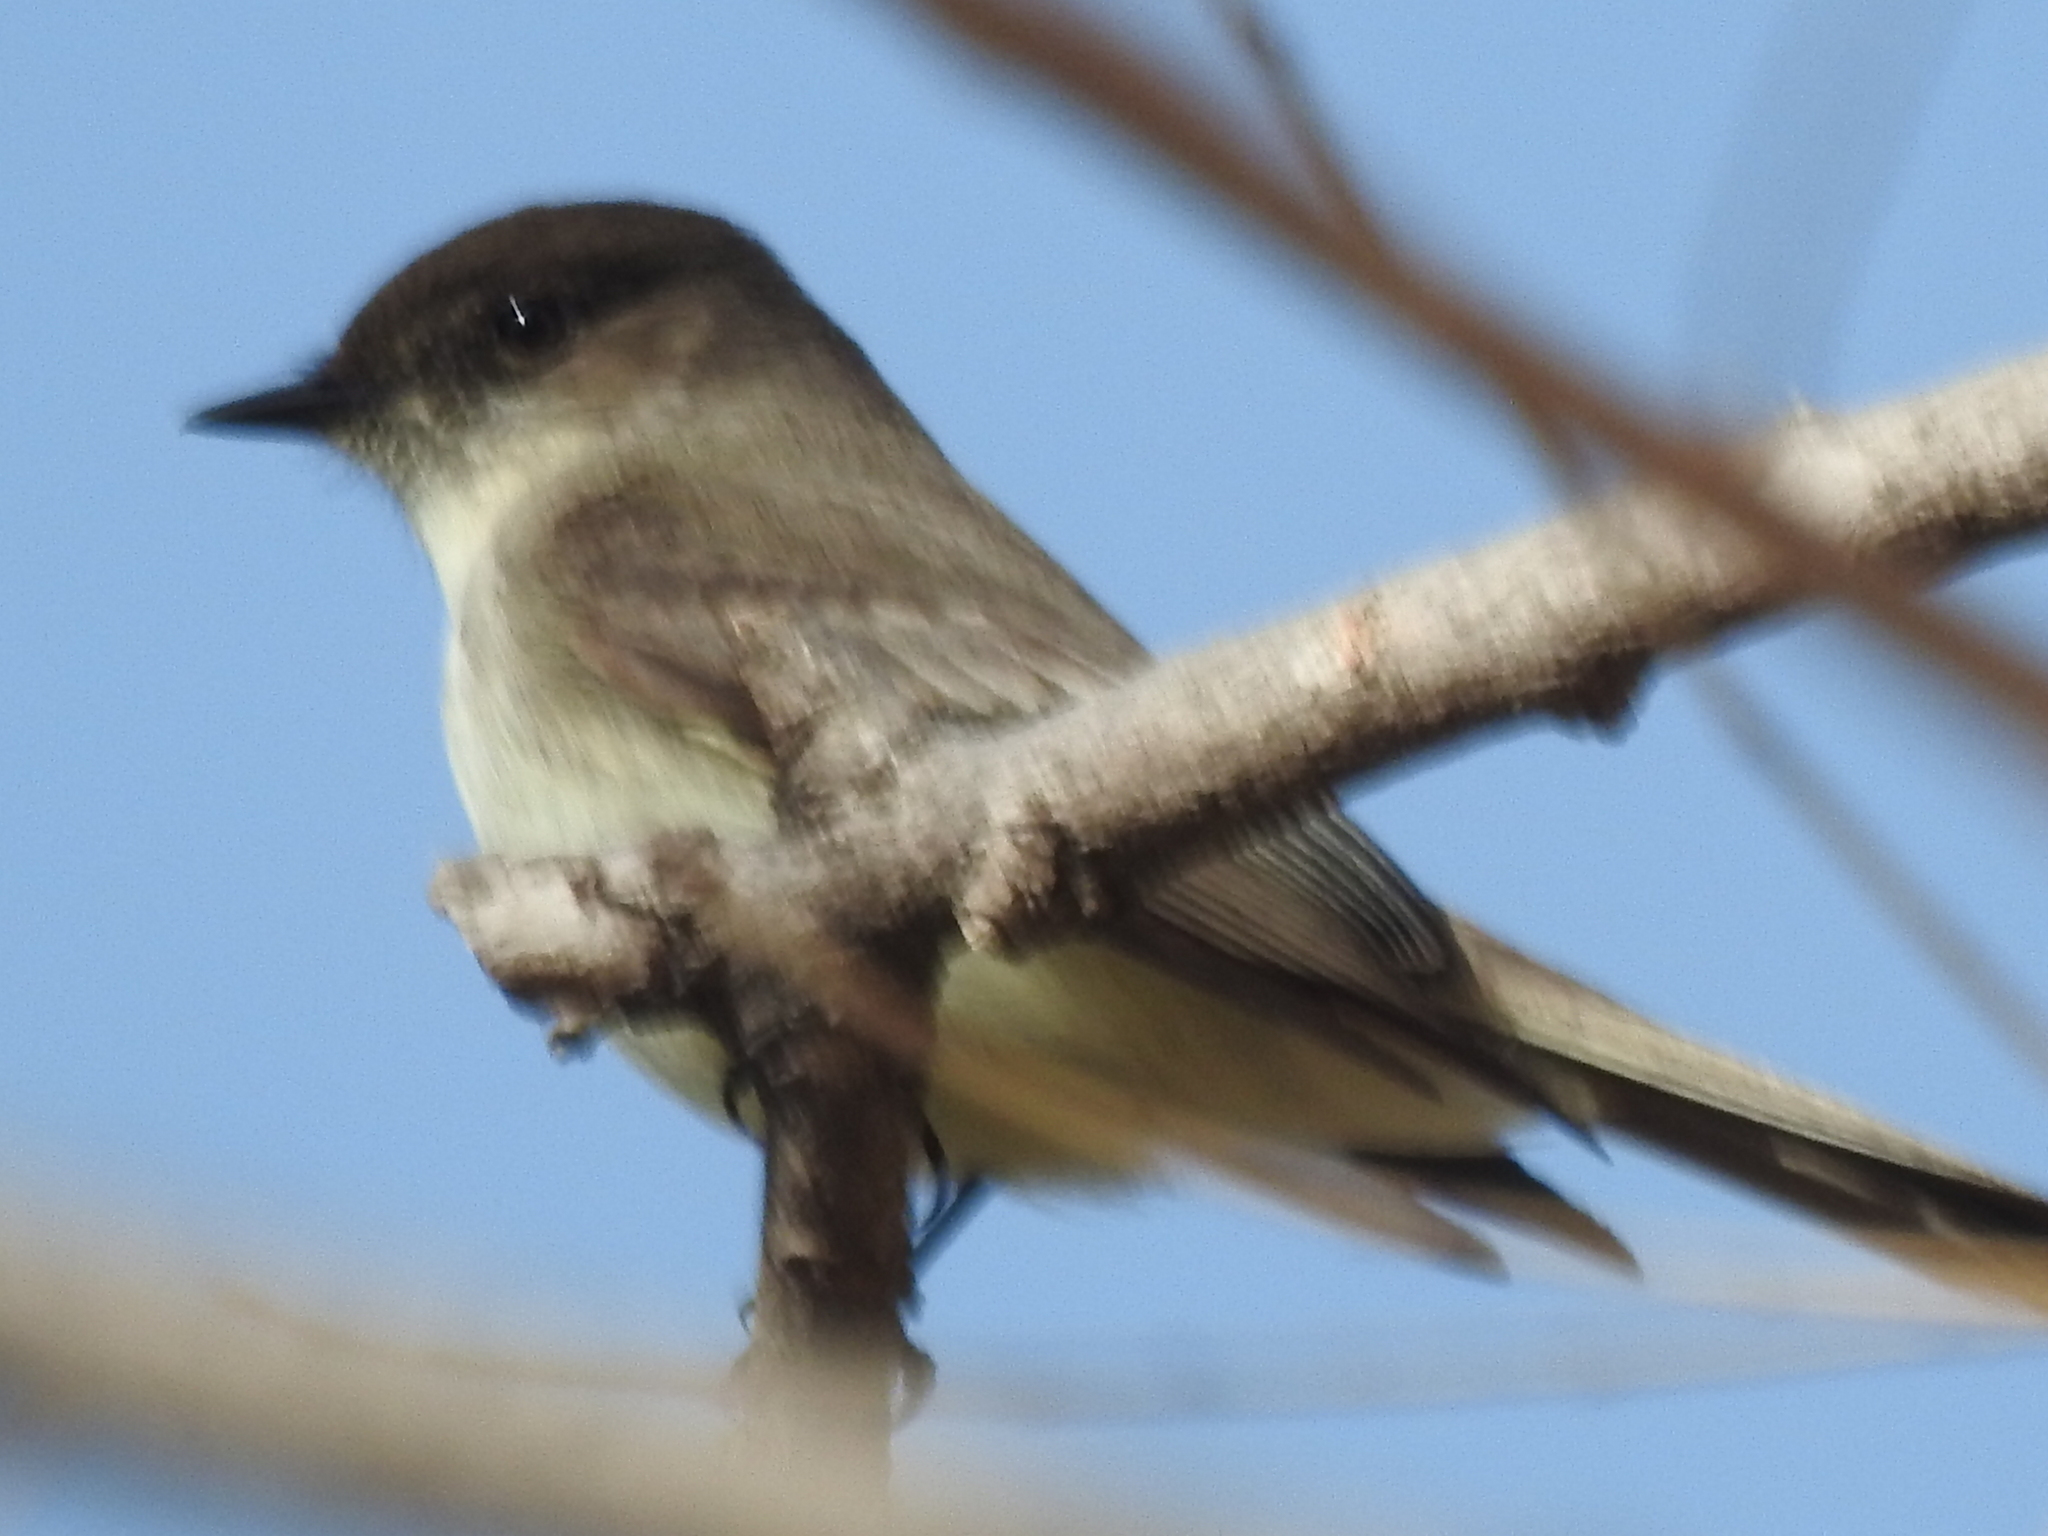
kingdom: Animalia
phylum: Chordata
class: Aves
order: Passeriformes
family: Tyrannidae
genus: Sayornis
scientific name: Sayornis phoebe
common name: Eastern phoebe
